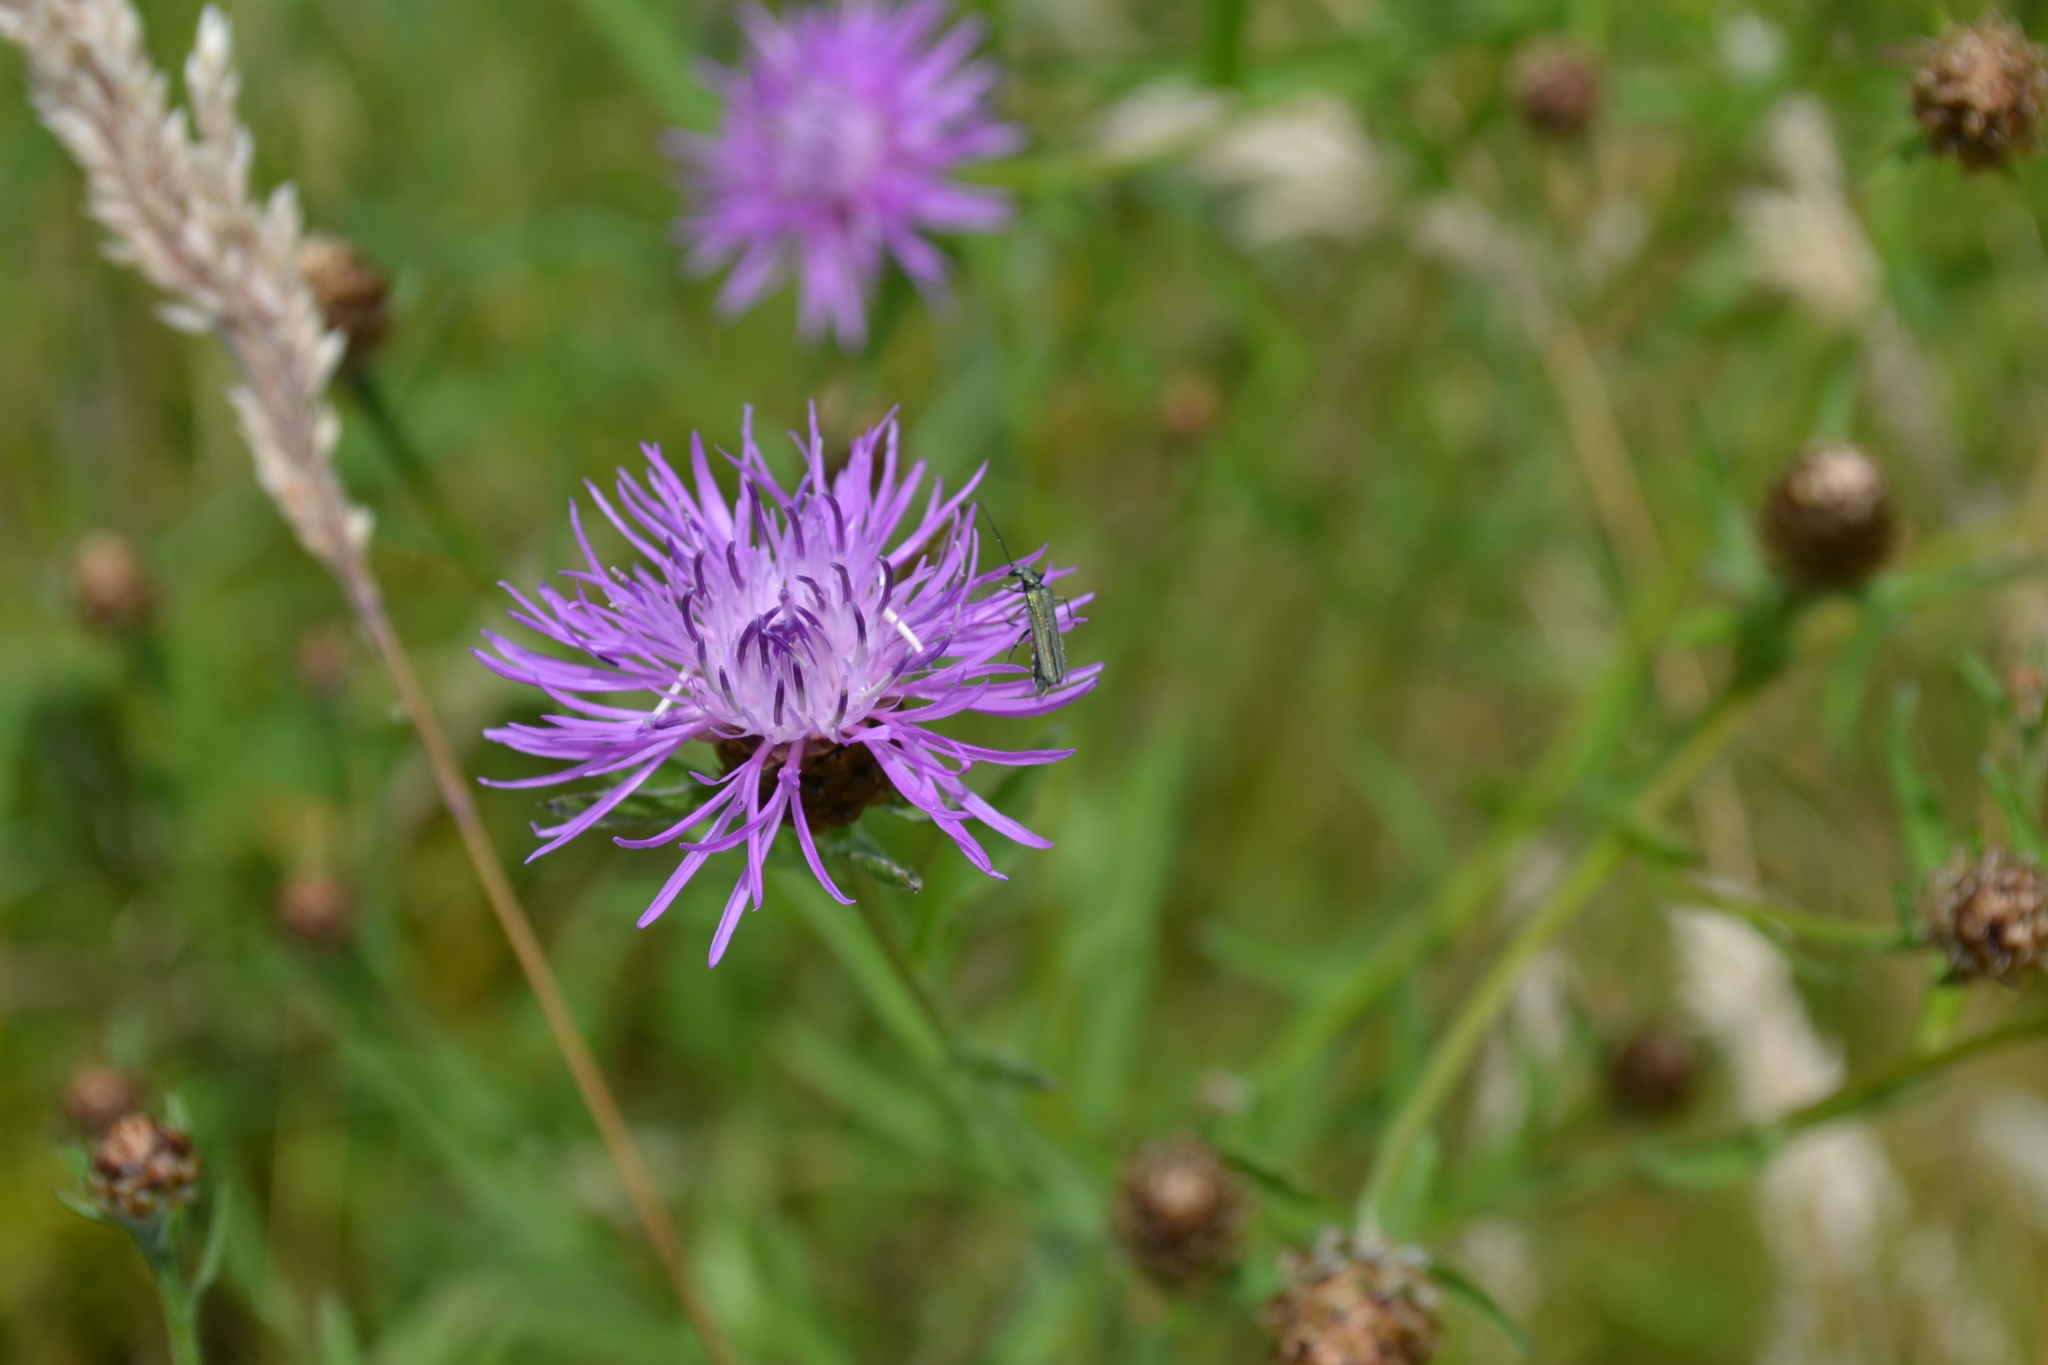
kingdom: Animalia
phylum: Arthropoda
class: Insecta
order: Coleoptera
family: Oedemeridae
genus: Oedemera
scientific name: Oedemera lurida
